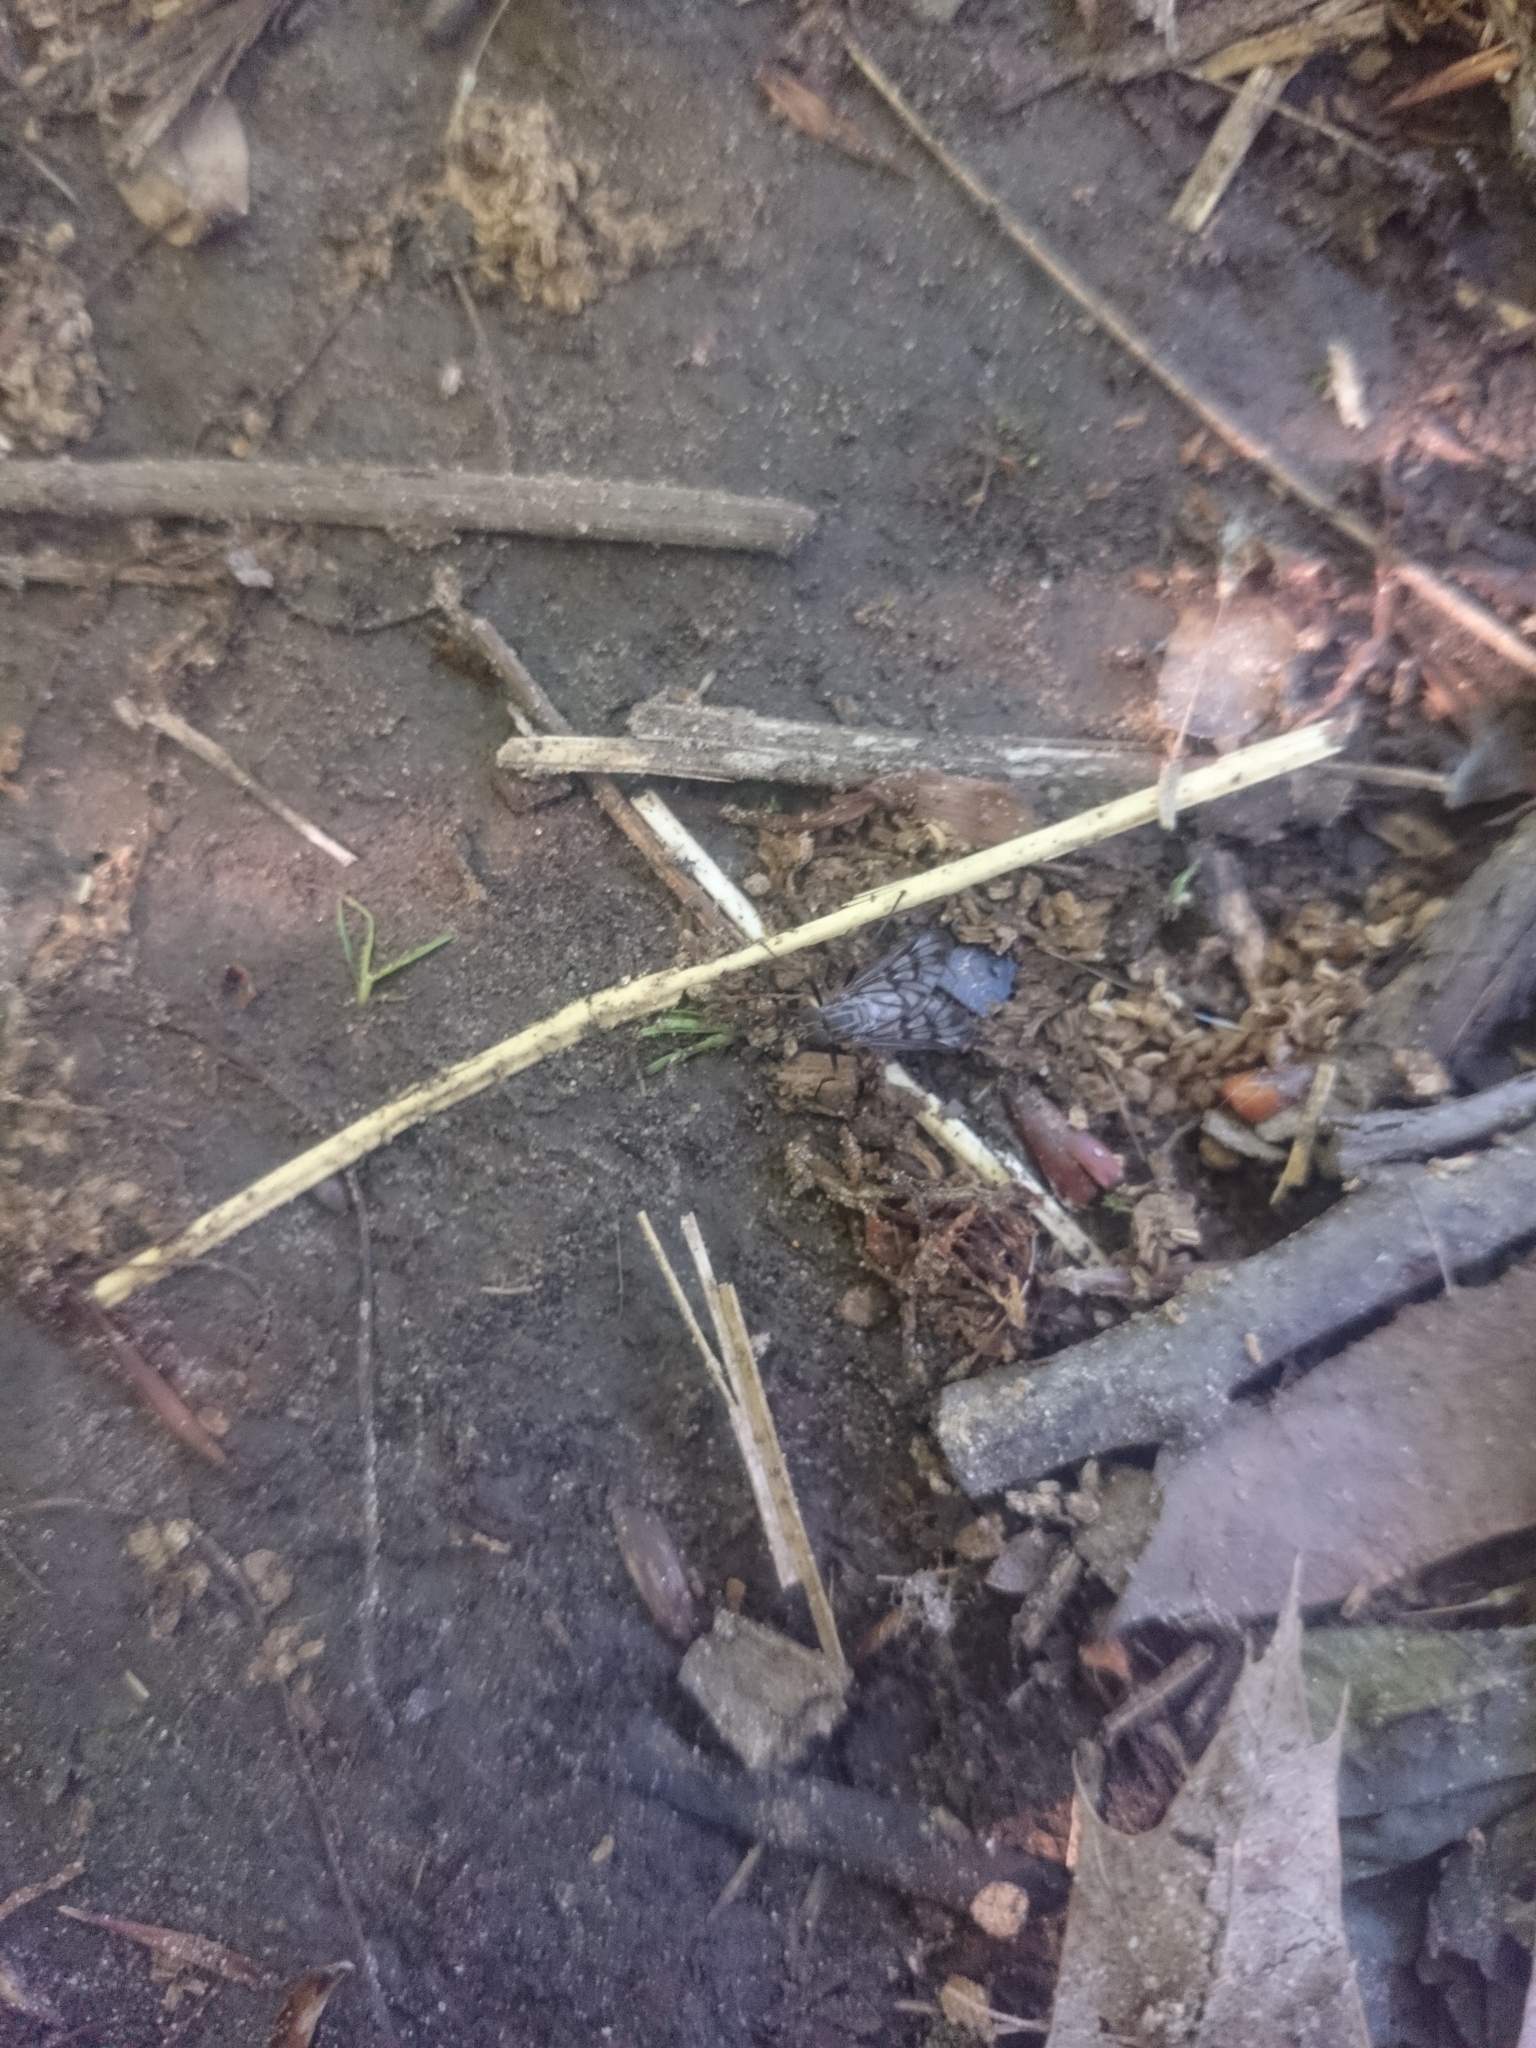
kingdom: Animalia
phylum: Arthropoda
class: Insecta
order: Diptera
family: Rhagionidae
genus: Rhagio
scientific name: Rhagio mystaceus
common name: Common snipe fly
